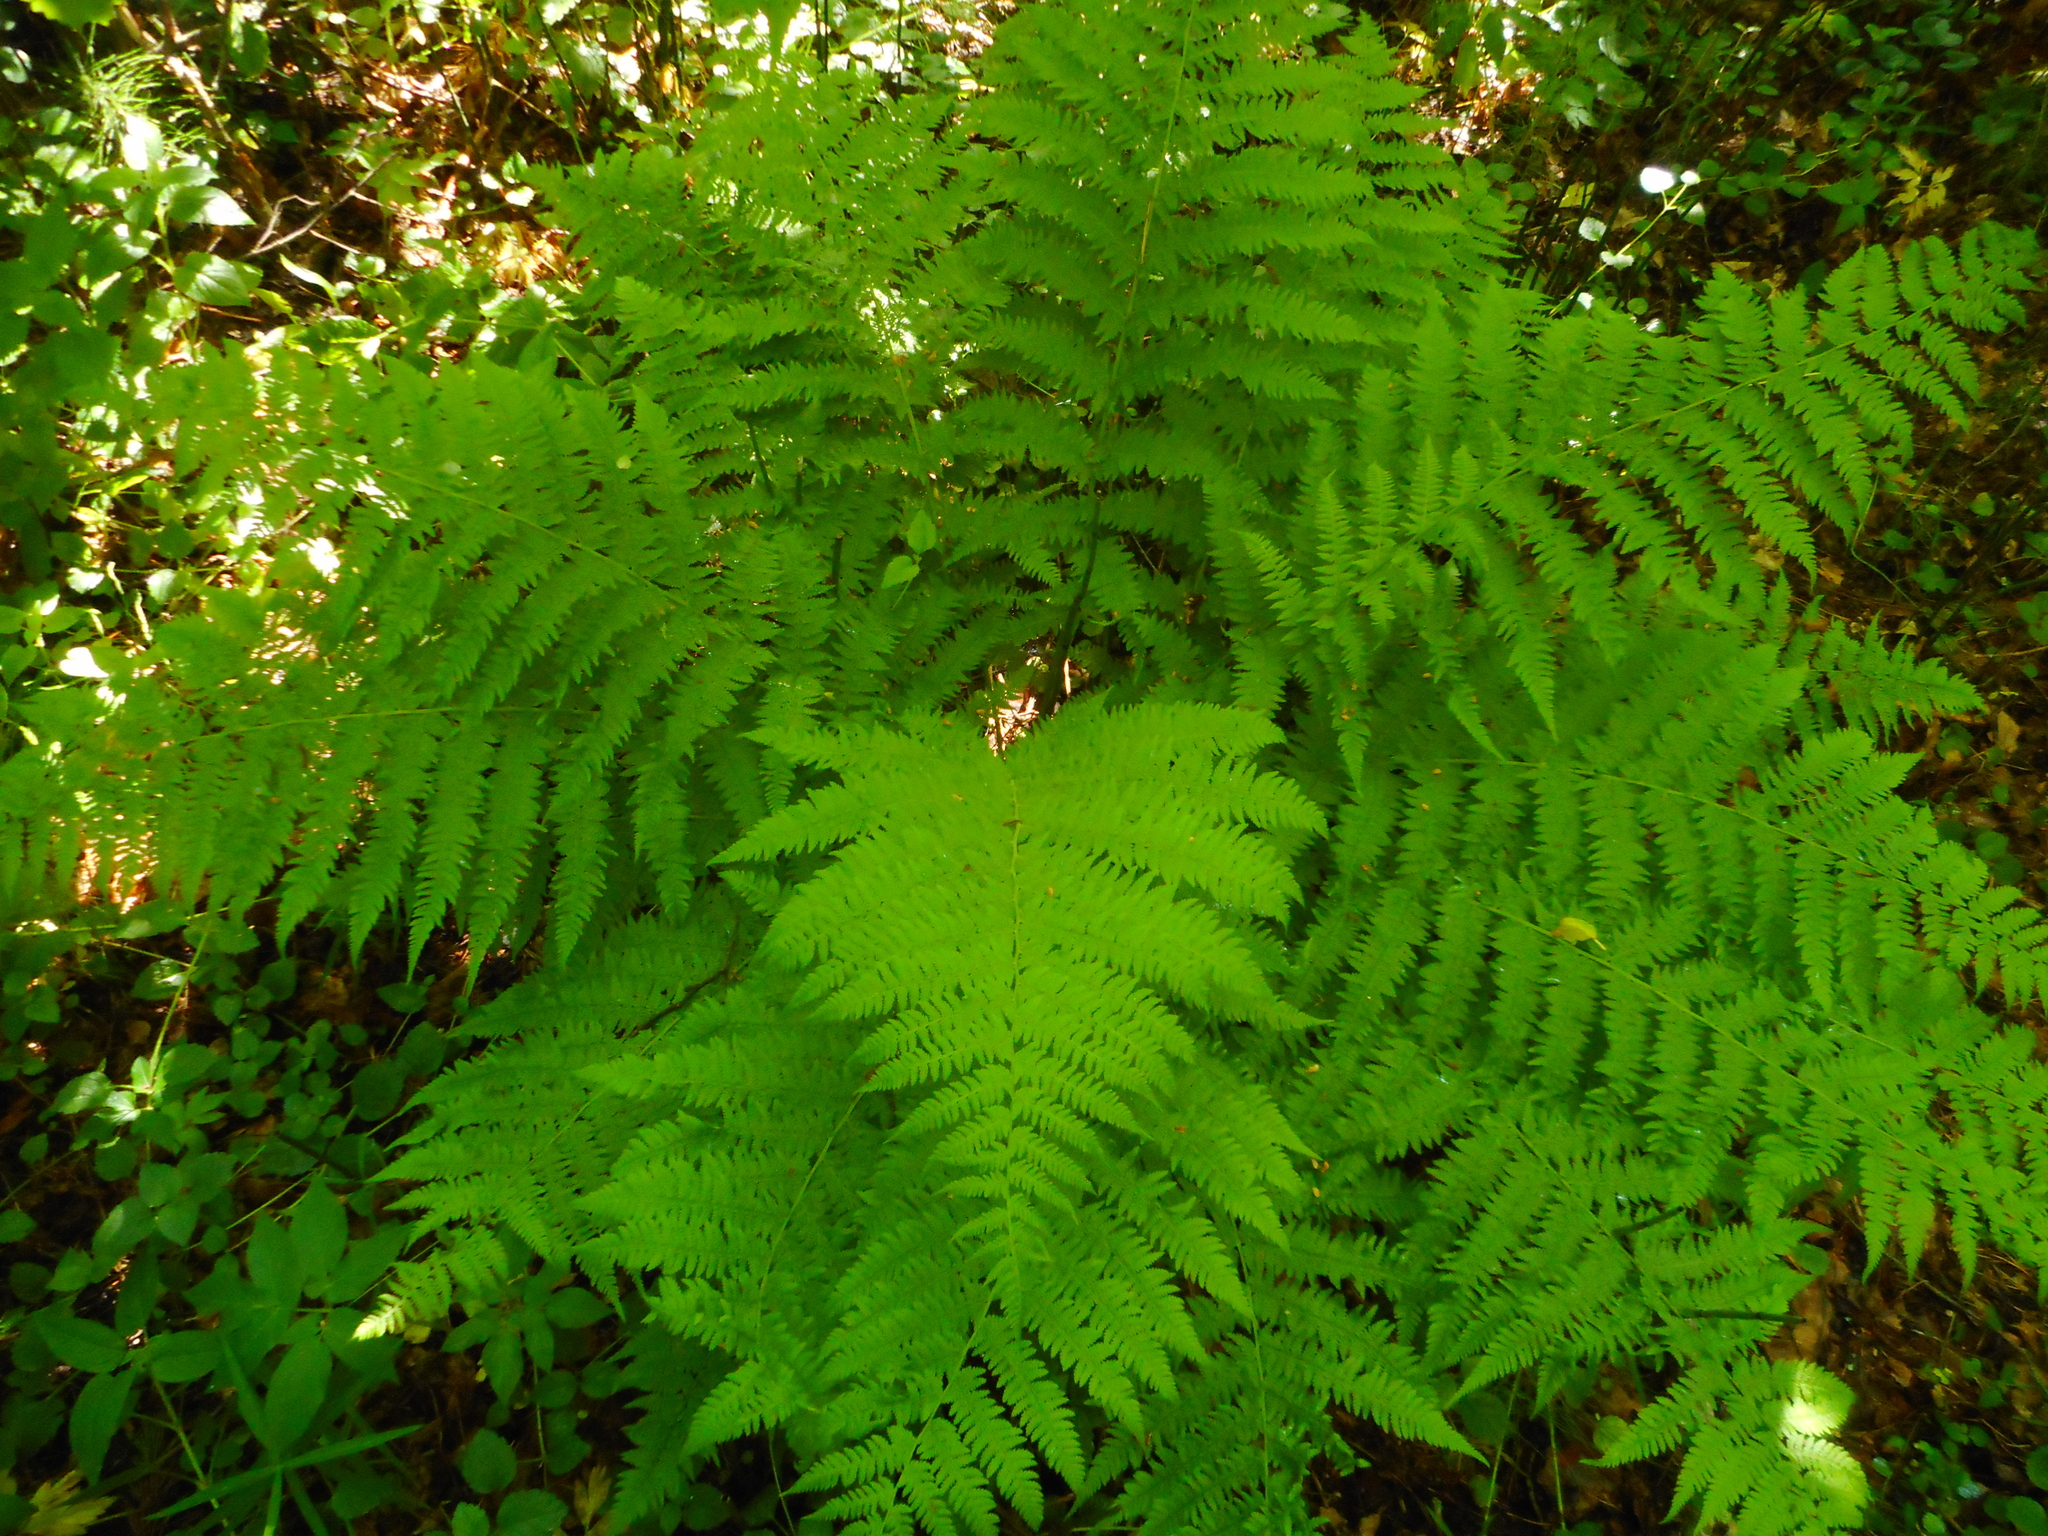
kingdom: Plantae
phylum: Tracheophyta
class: Polypodiopsida
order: Polypodiales
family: Athyriaceae
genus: Athyrium
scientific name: Athyrium filix-femina
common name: Lady fern
